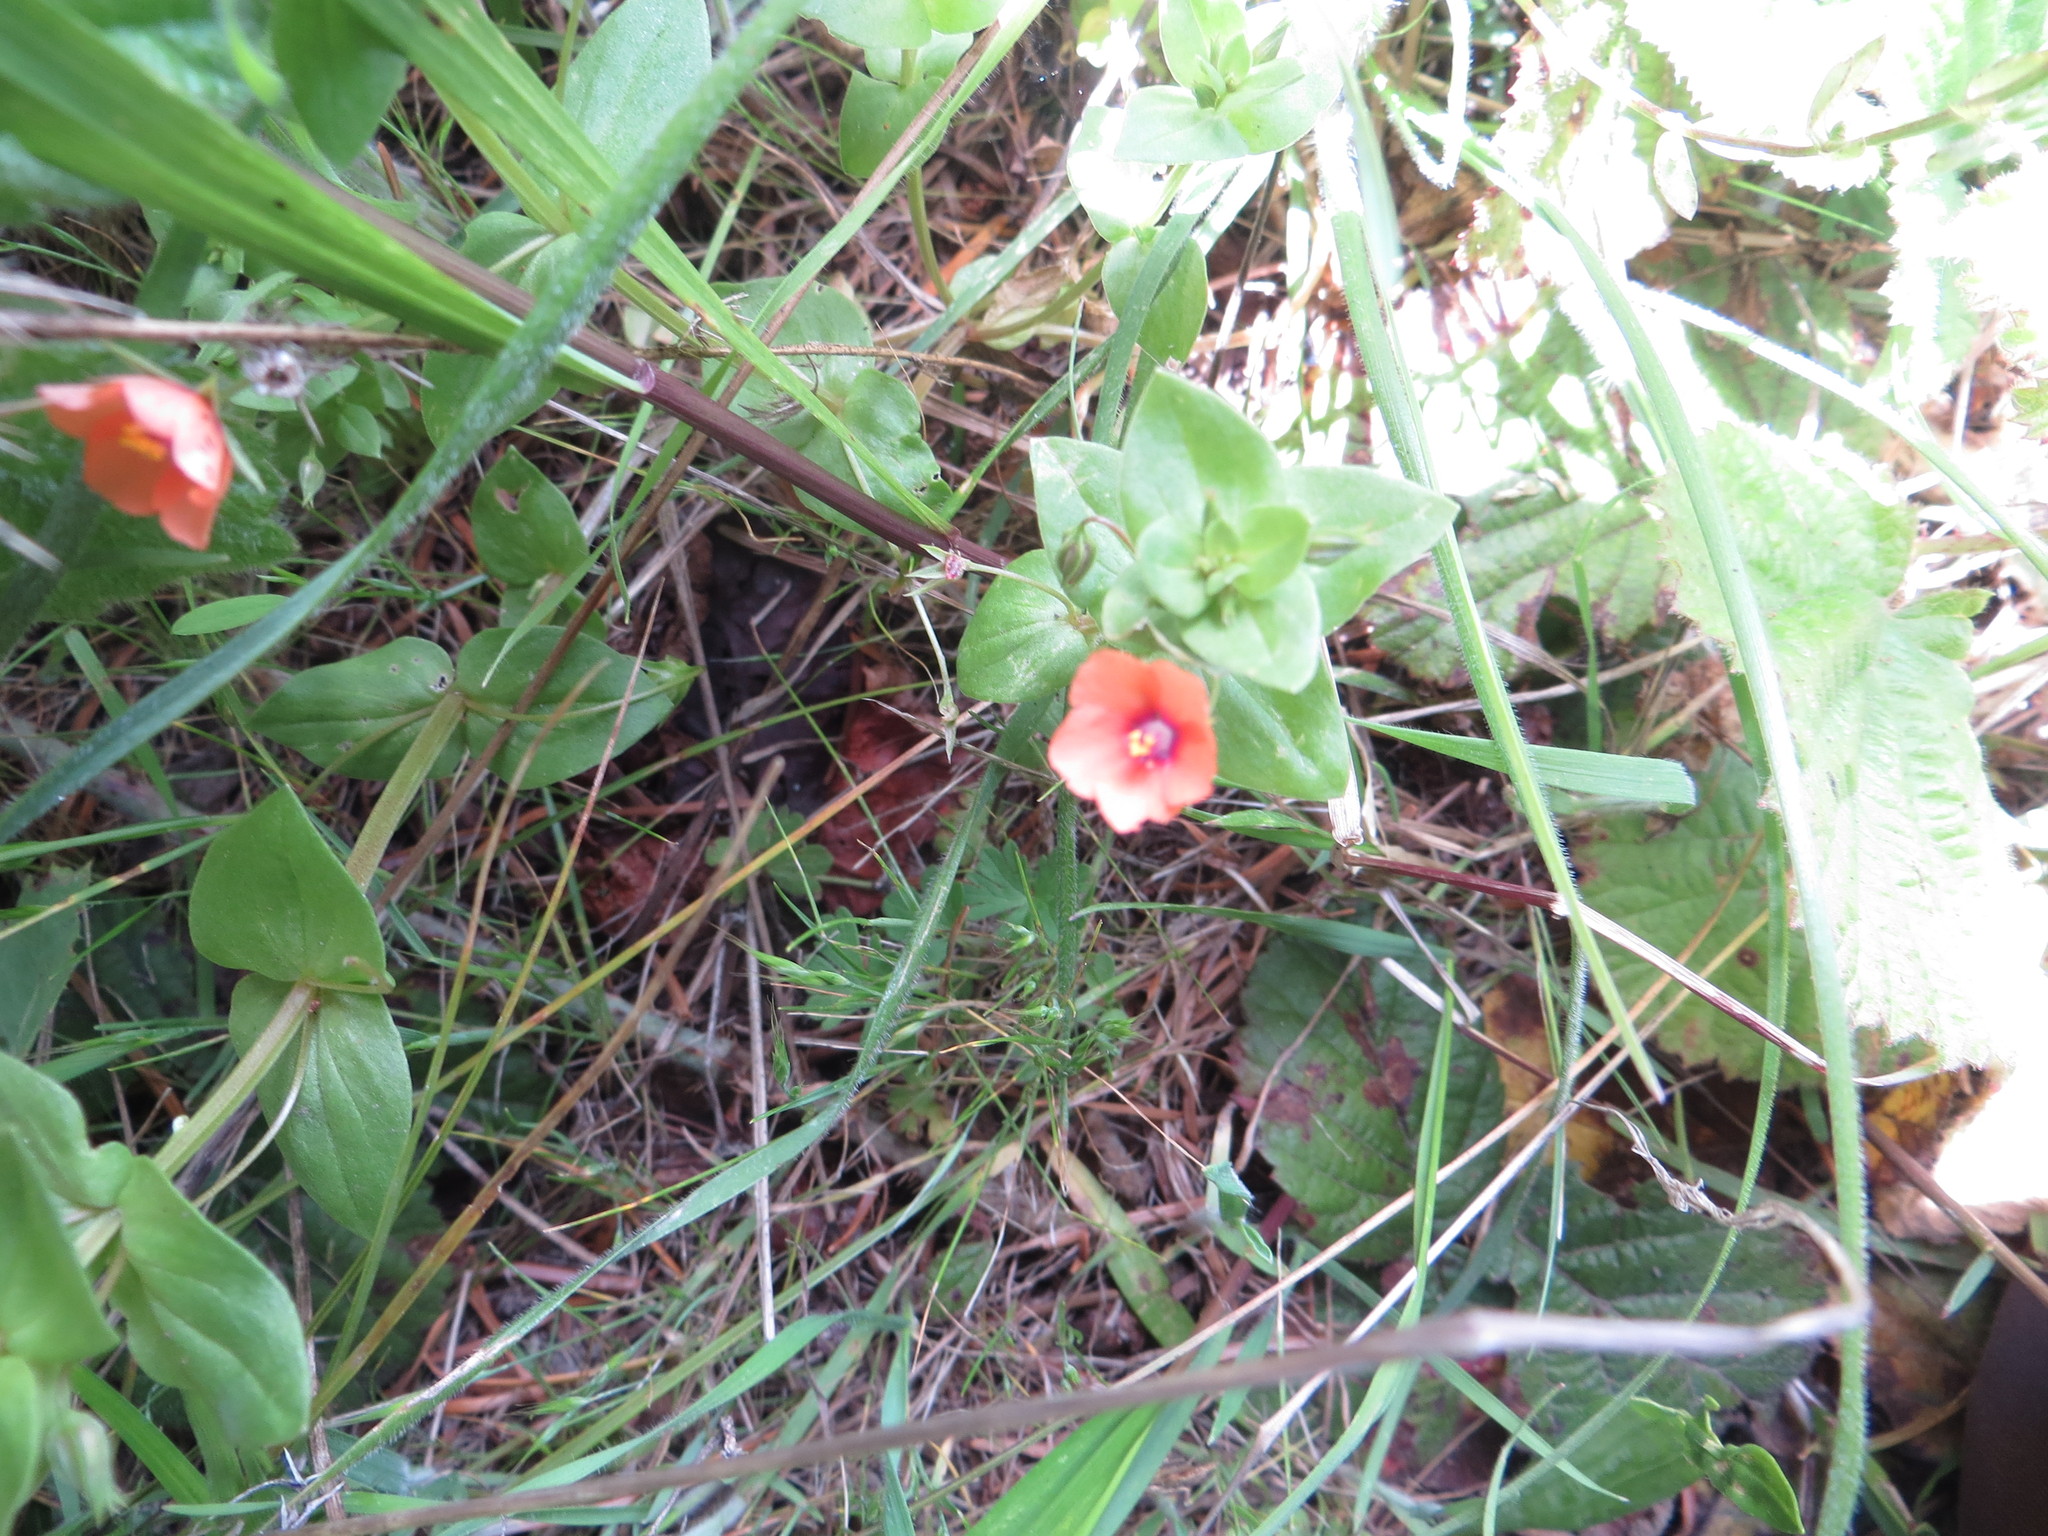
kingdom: Plantae
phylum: Tracheophyta
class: Magnoliopsida
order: Ericales
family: Primulaceae
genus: Lysimachia
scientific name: Lysimachia arvensis
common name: Scarlet pimpernel
